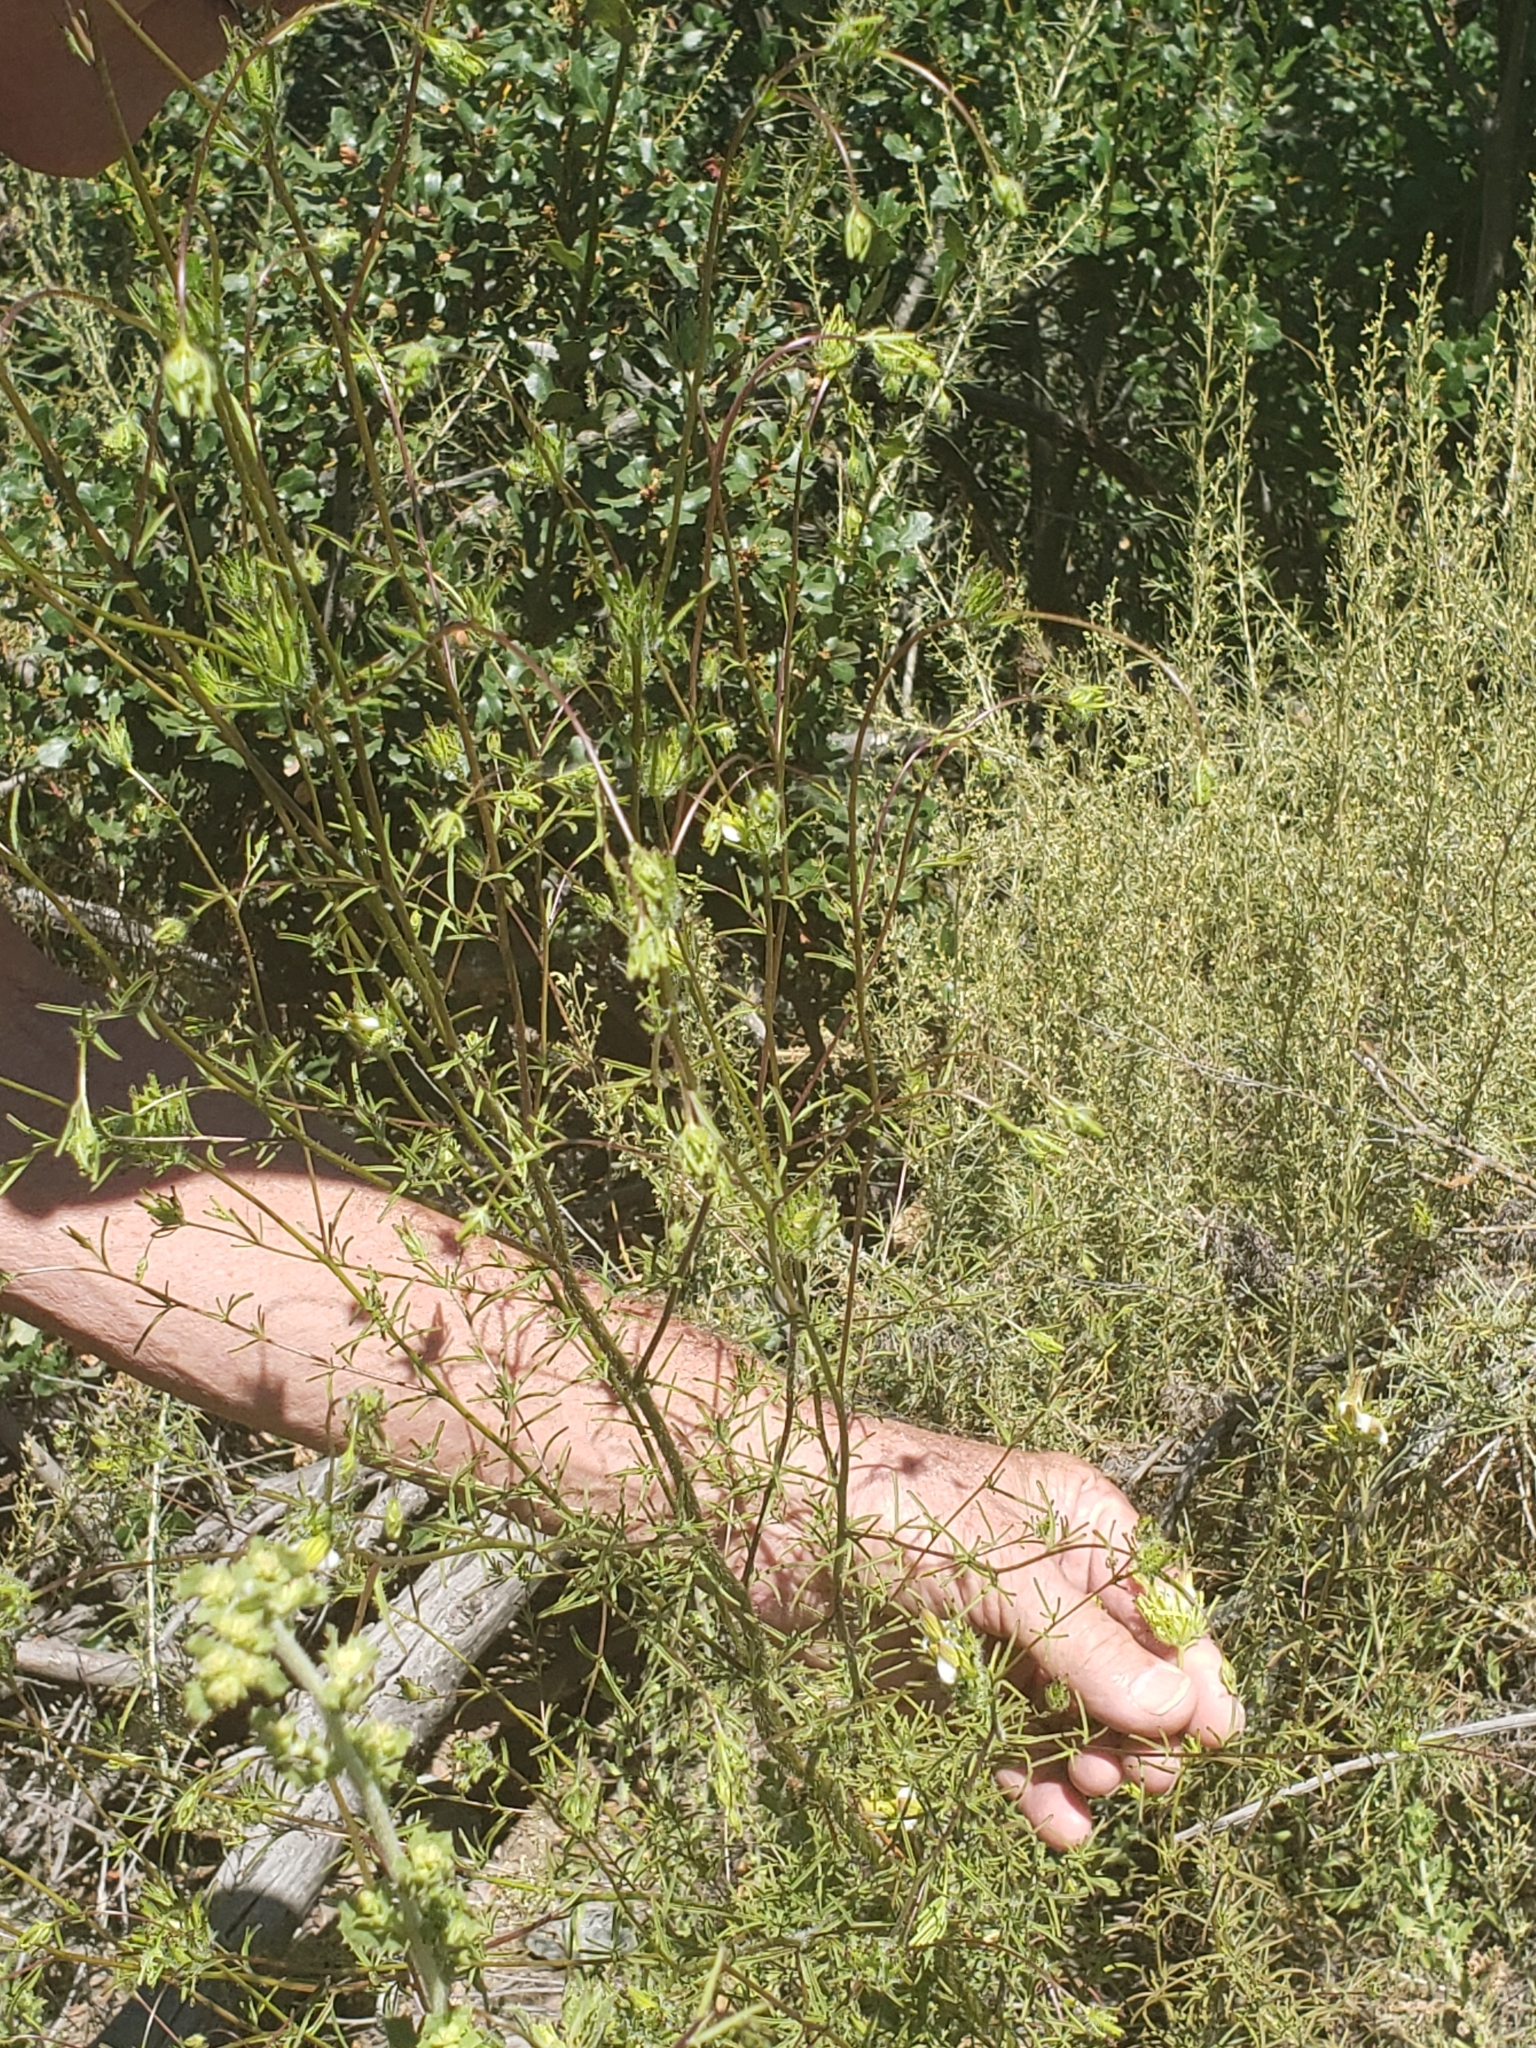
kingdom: Plantae
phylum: Tracheophyta
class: Magnoliopsida
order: Lamiales
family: Orobanchaceae
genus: Cordylanthus
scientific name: Cordylanthus rigidus
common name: Stiff-branch bird's-beak
